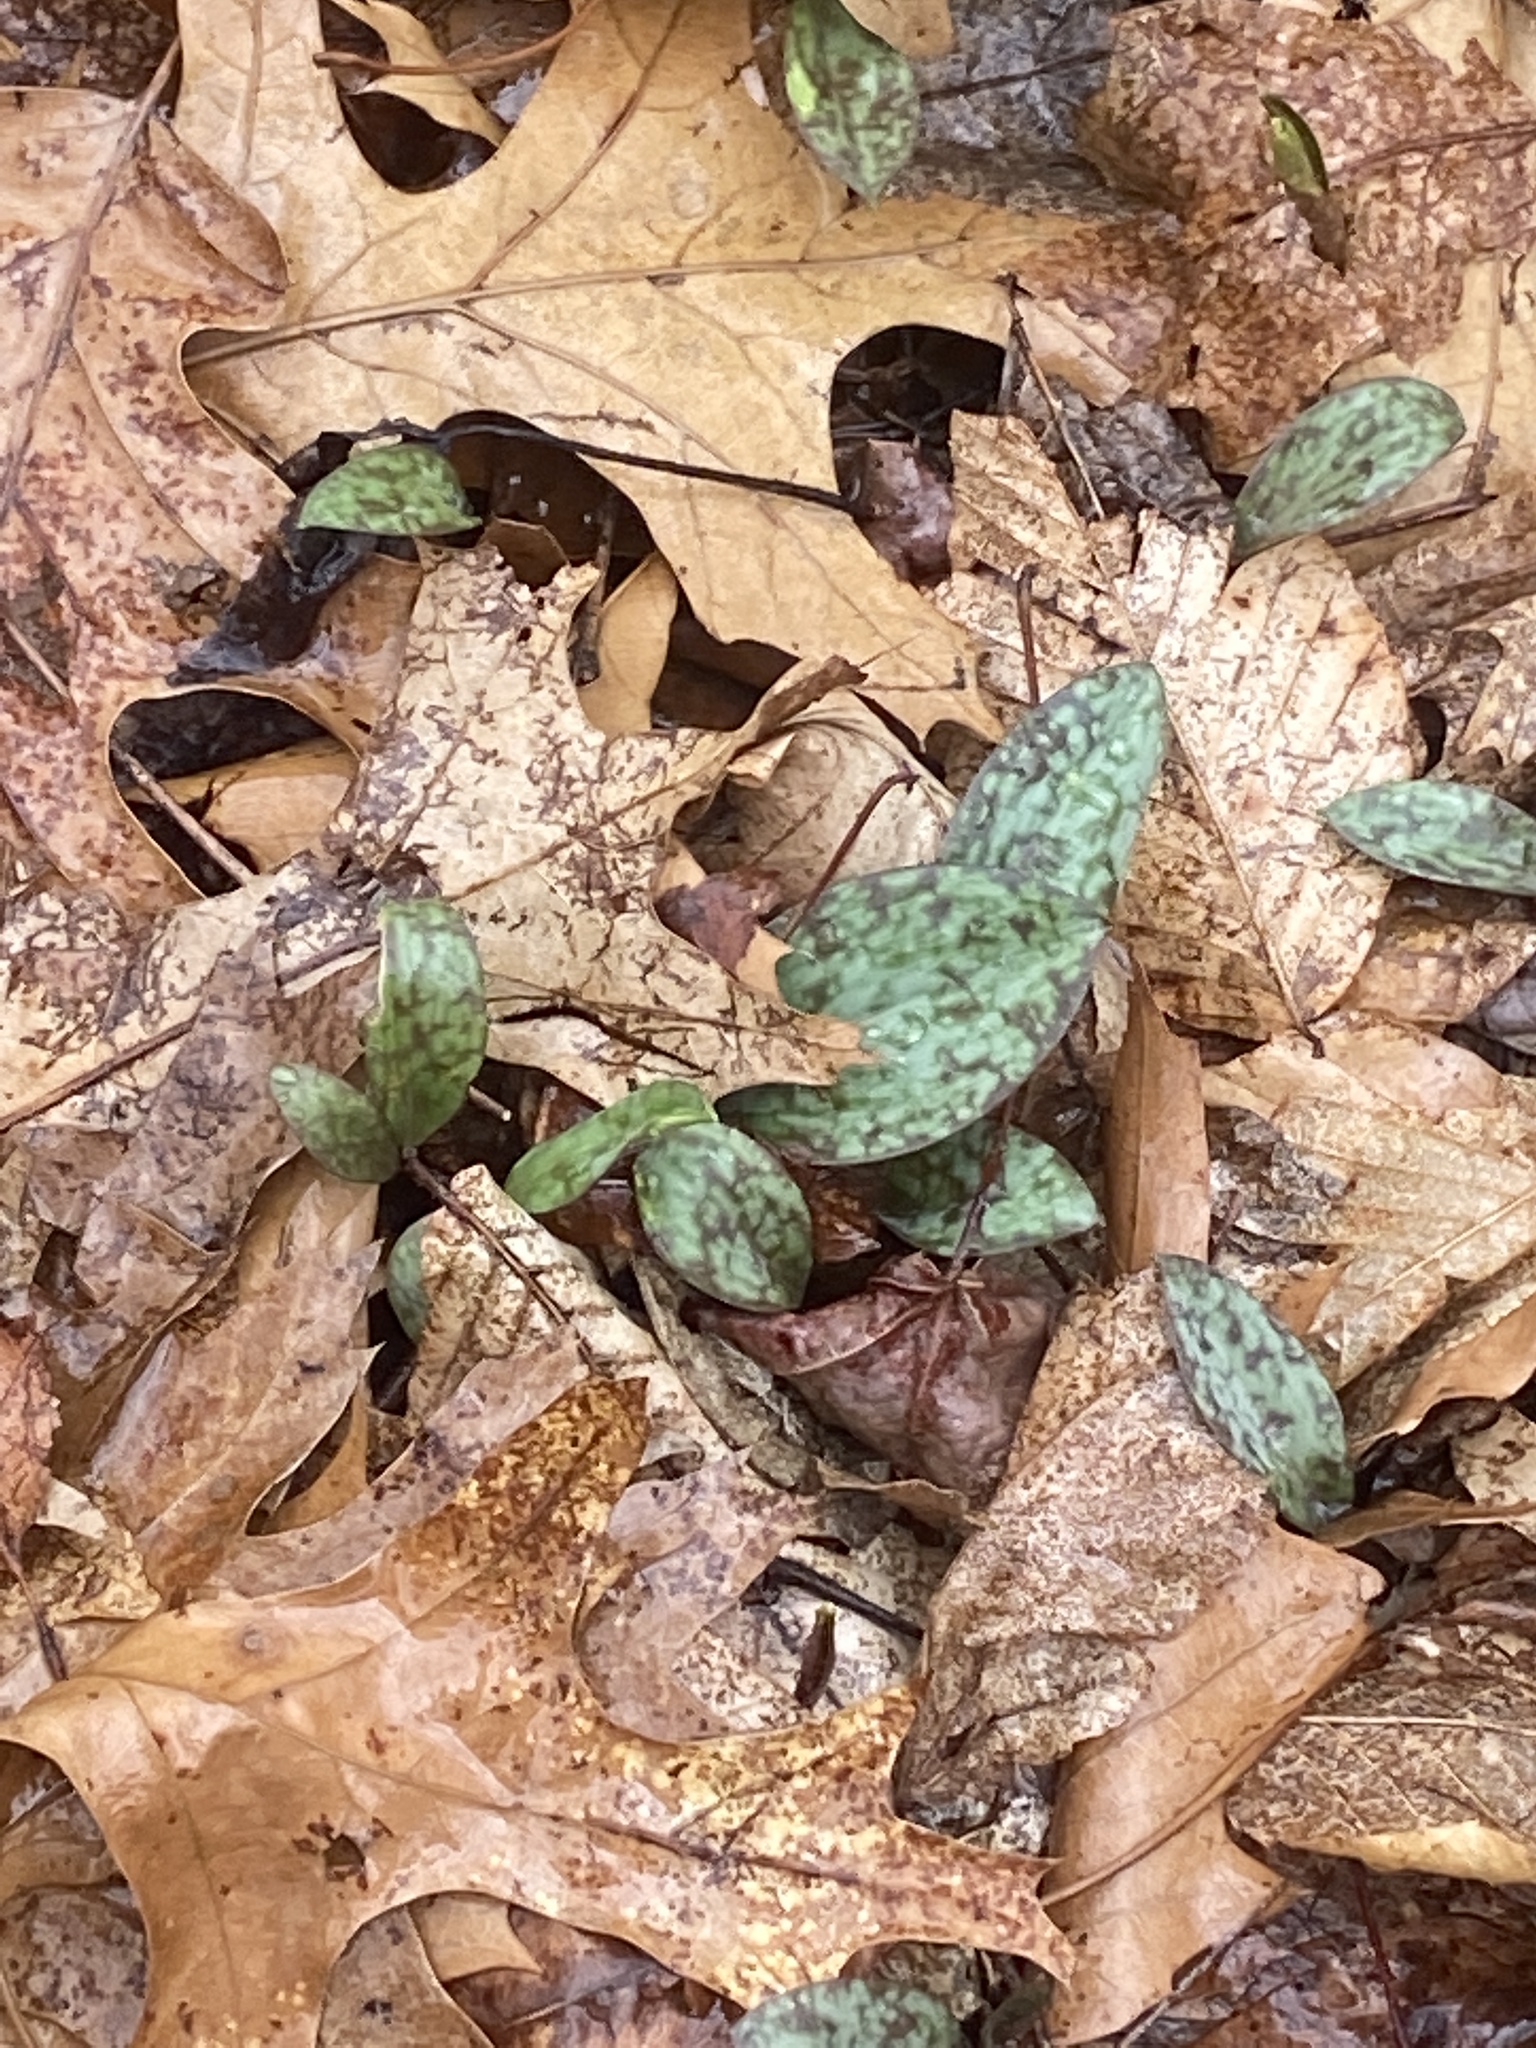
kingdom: Plantae
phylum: Tracheophyta
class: Liliopsida
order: Liliales
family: Liliaceae
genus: Erythronium
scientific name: Erythronium americanum
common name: Yellow adder's-tongue
